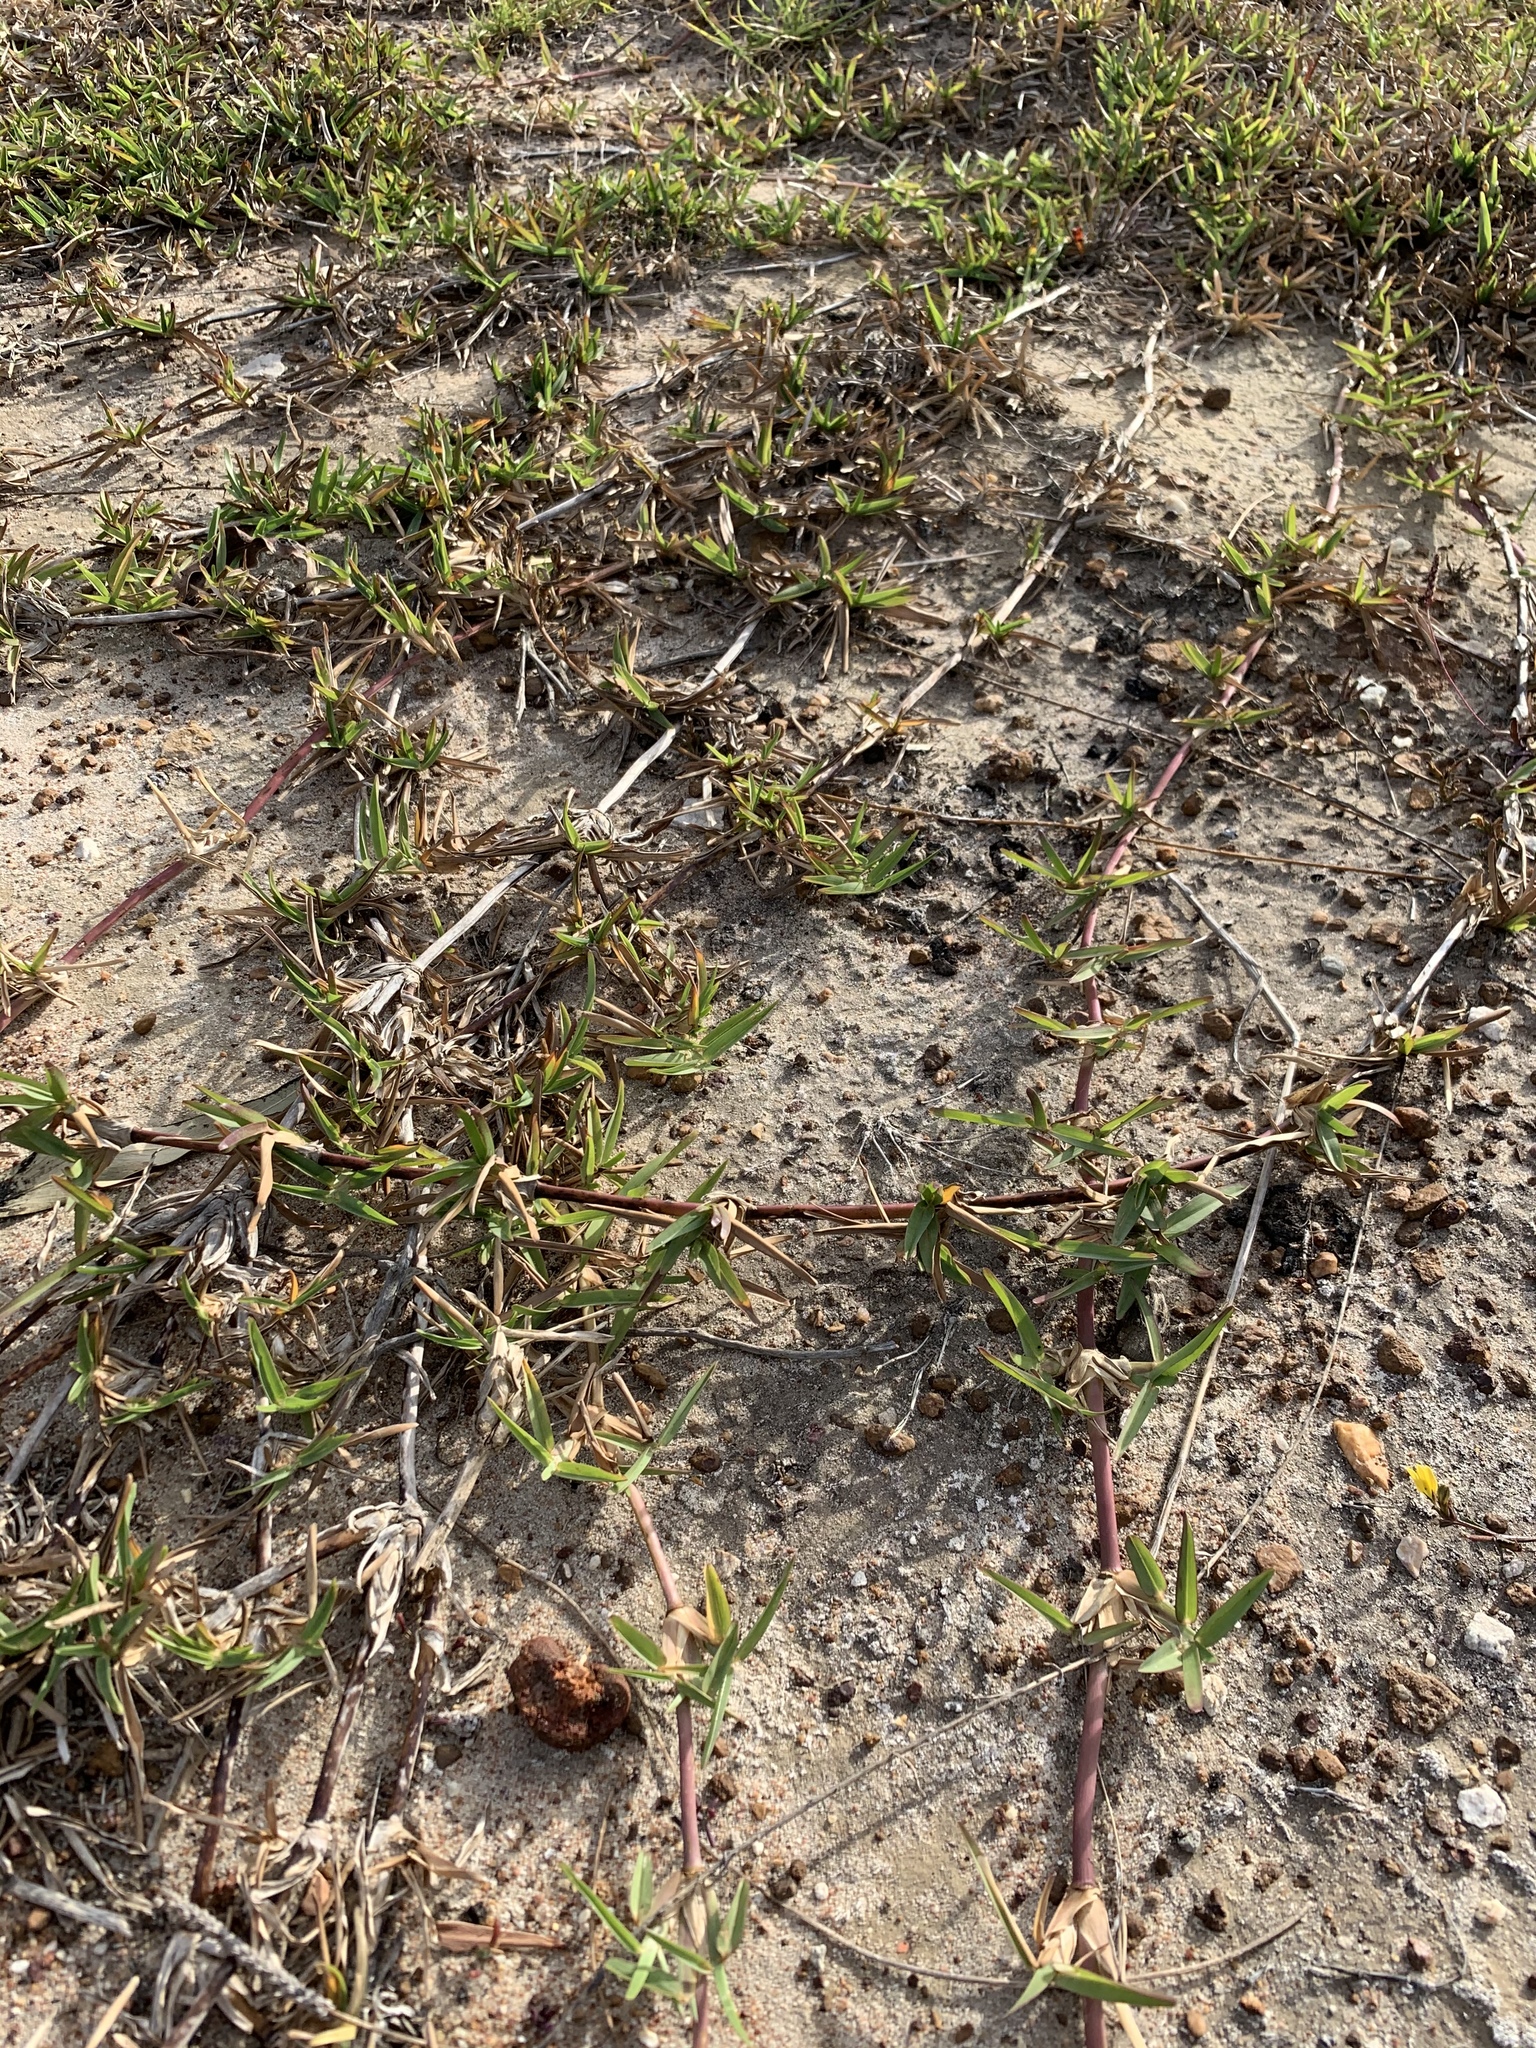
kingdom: Plantae
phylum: Tracheophyta
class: Liliopsida
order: Poales
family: Poaceae
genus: Stenotaphrum
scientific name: Stenotaphrum secundatum
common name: St. augustine grass
